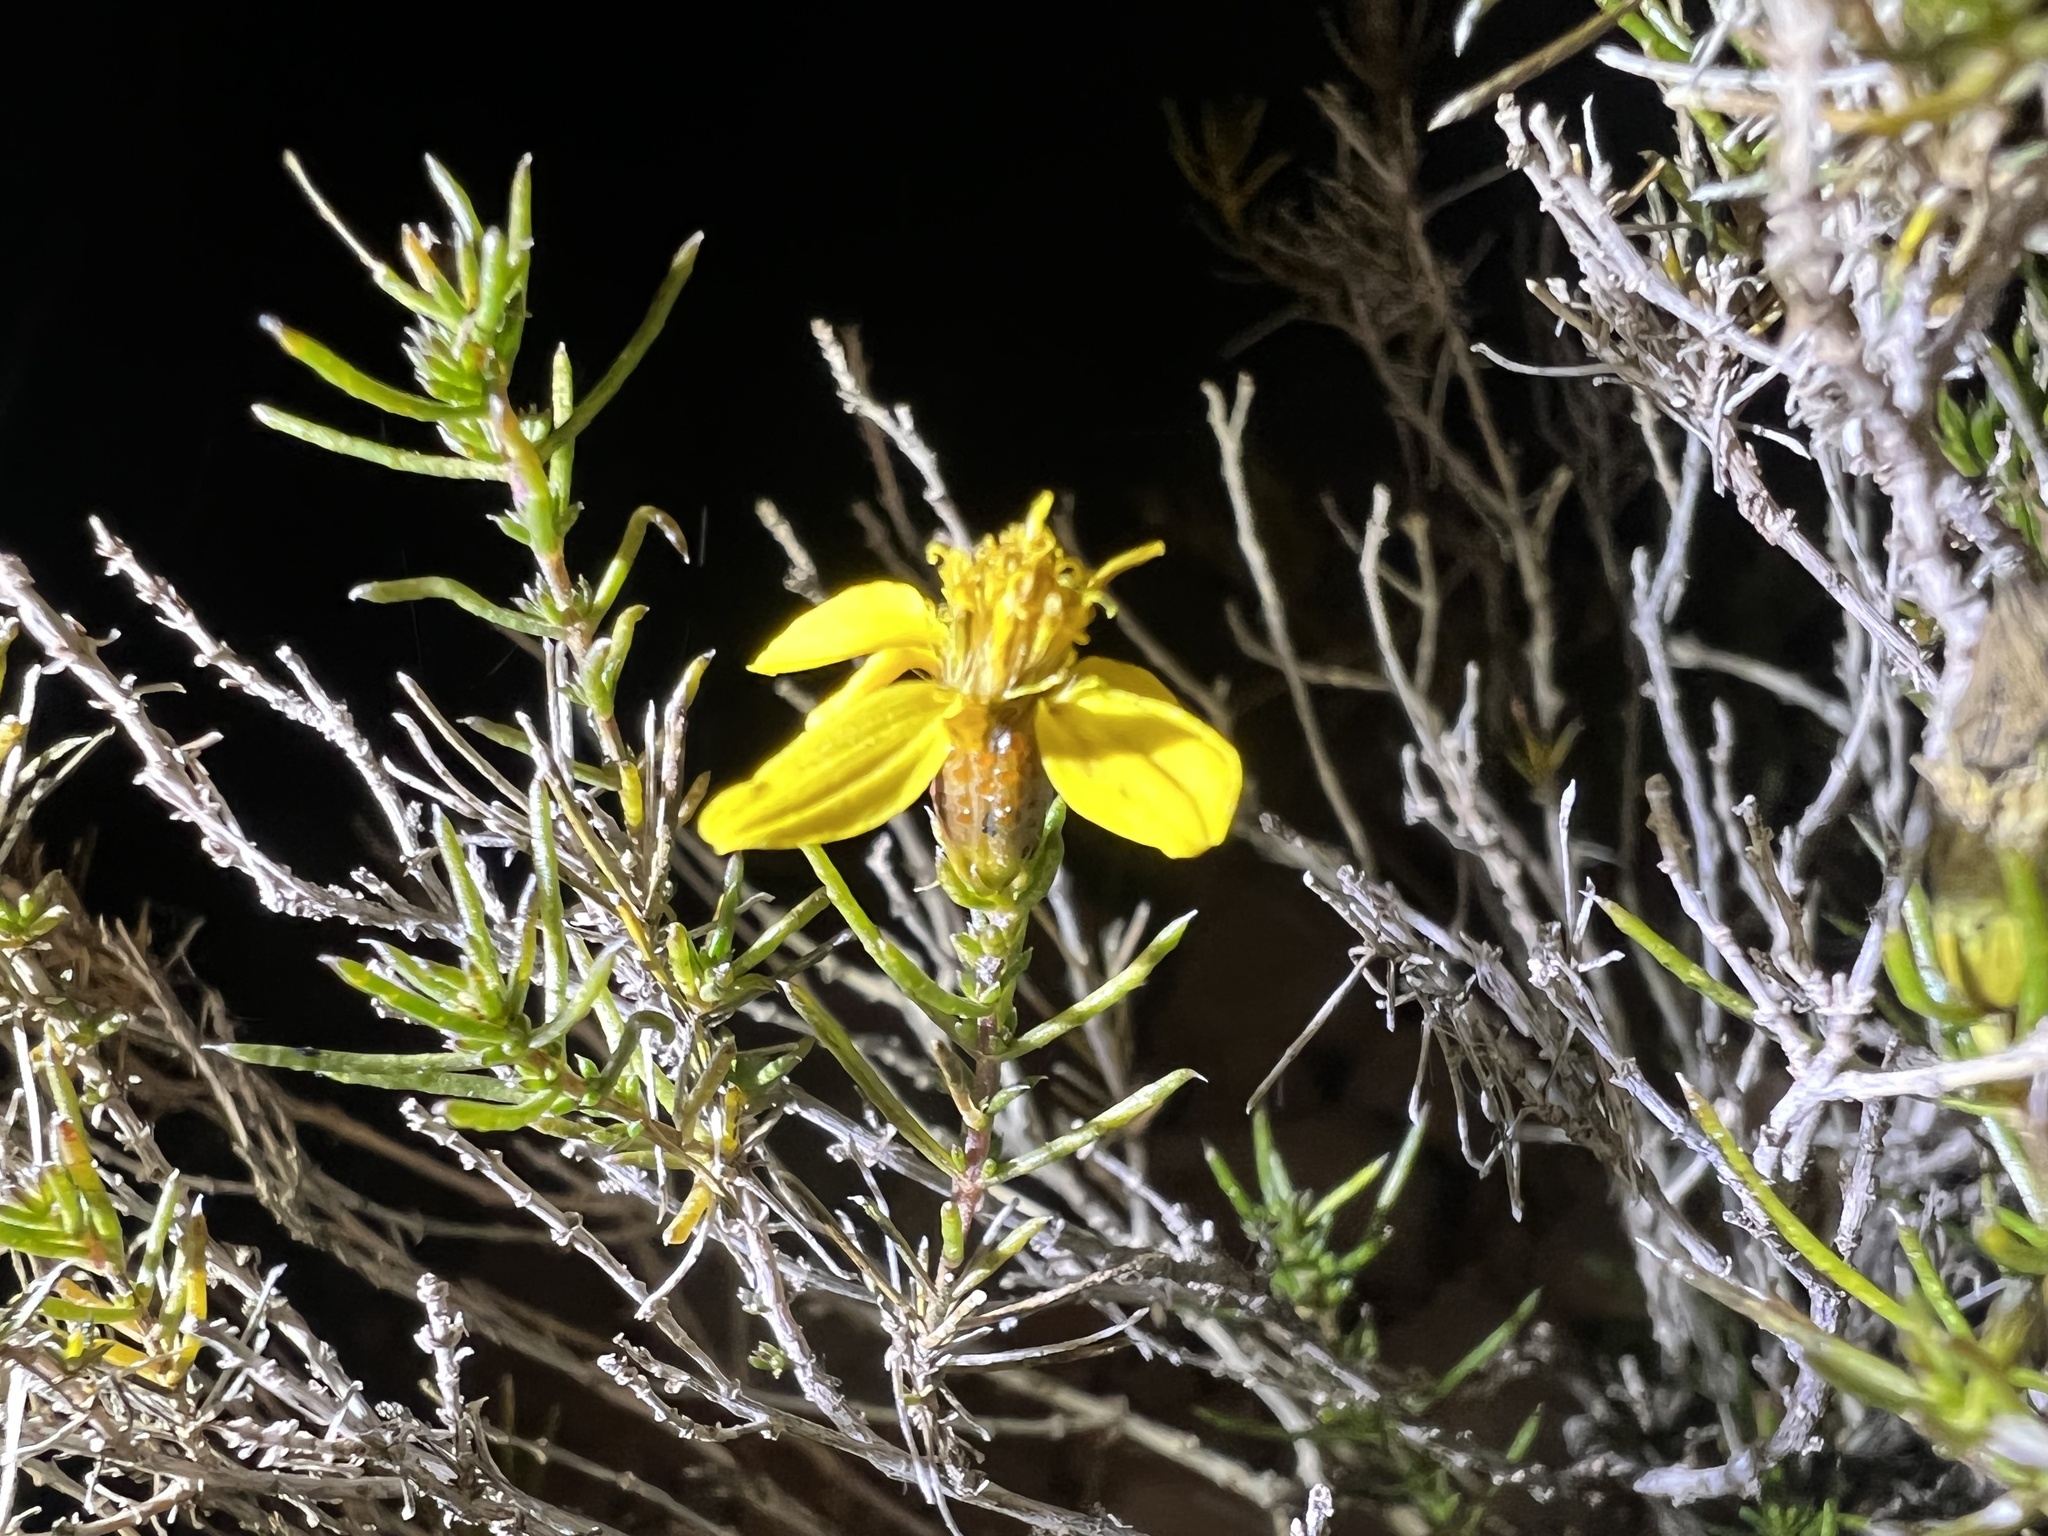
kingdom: Plantae
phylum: Tracheophyta
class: Magnoliopsida
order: Asterales
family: Asteraceae
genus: Thymophylla
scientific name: Thymophylla acerosa
